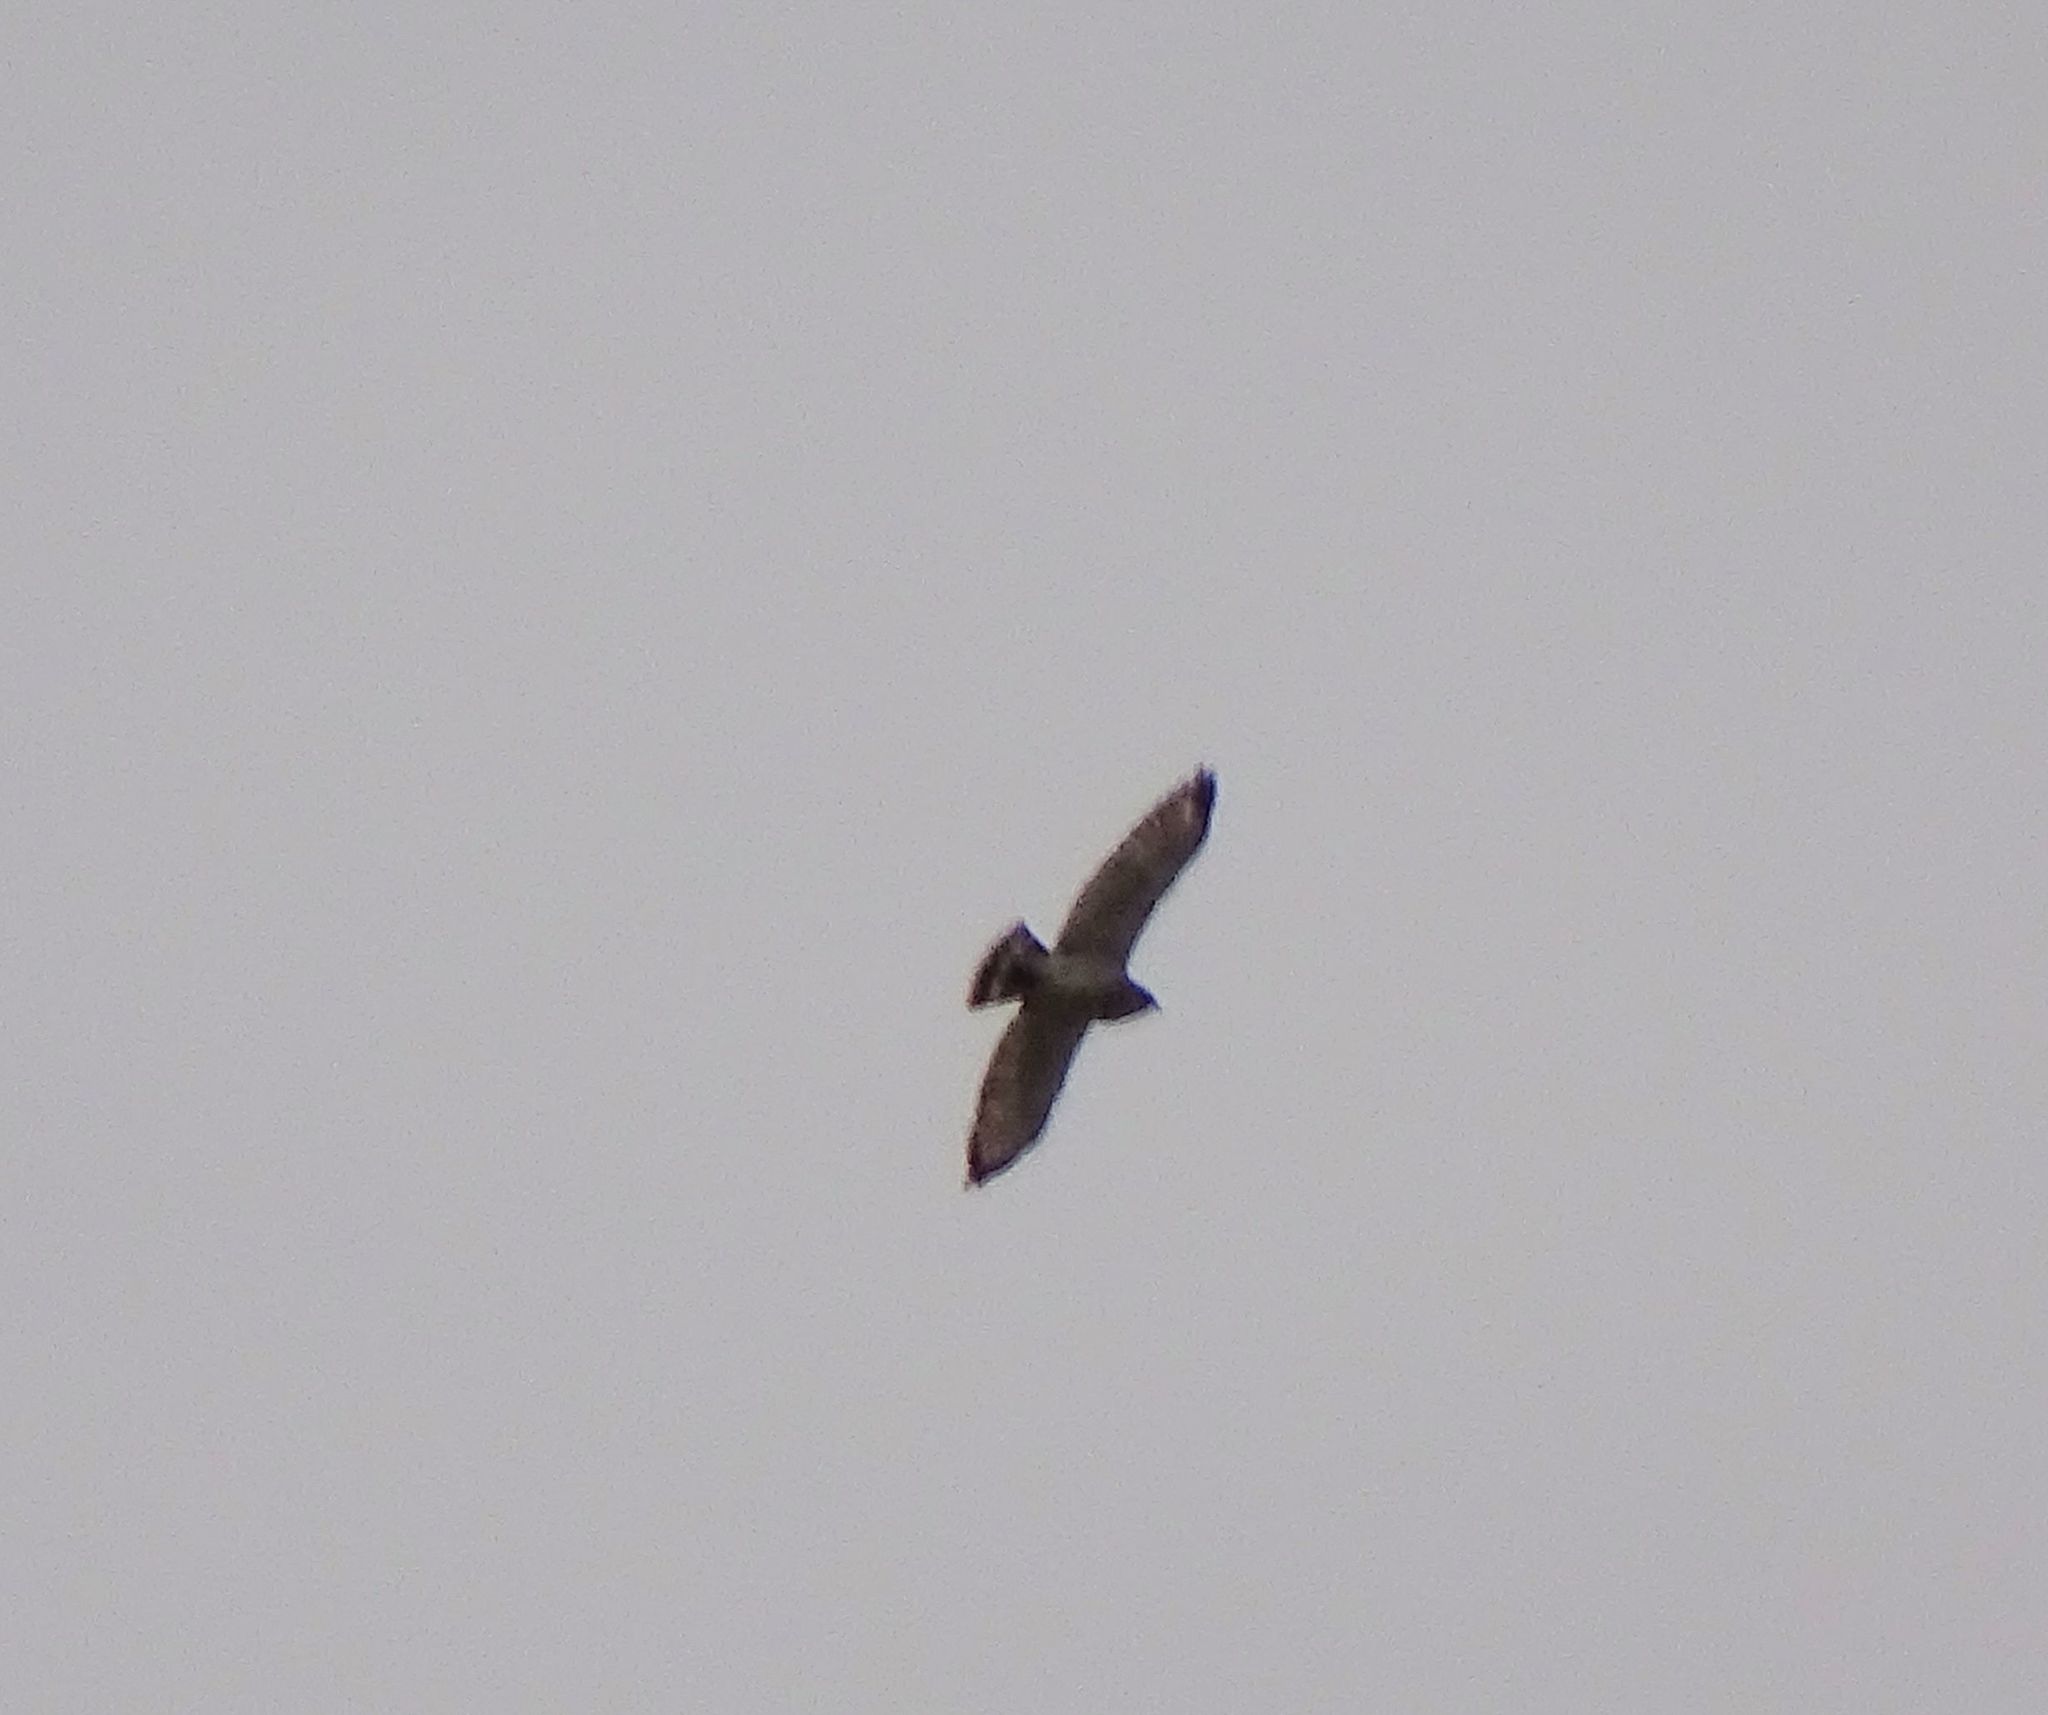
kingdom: Animalia
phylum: Chordata
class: Aves
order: Accipitriformes
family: Accipitridae
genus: Buteo
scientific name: Buteo platypterus
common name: Broad-winged hawk
